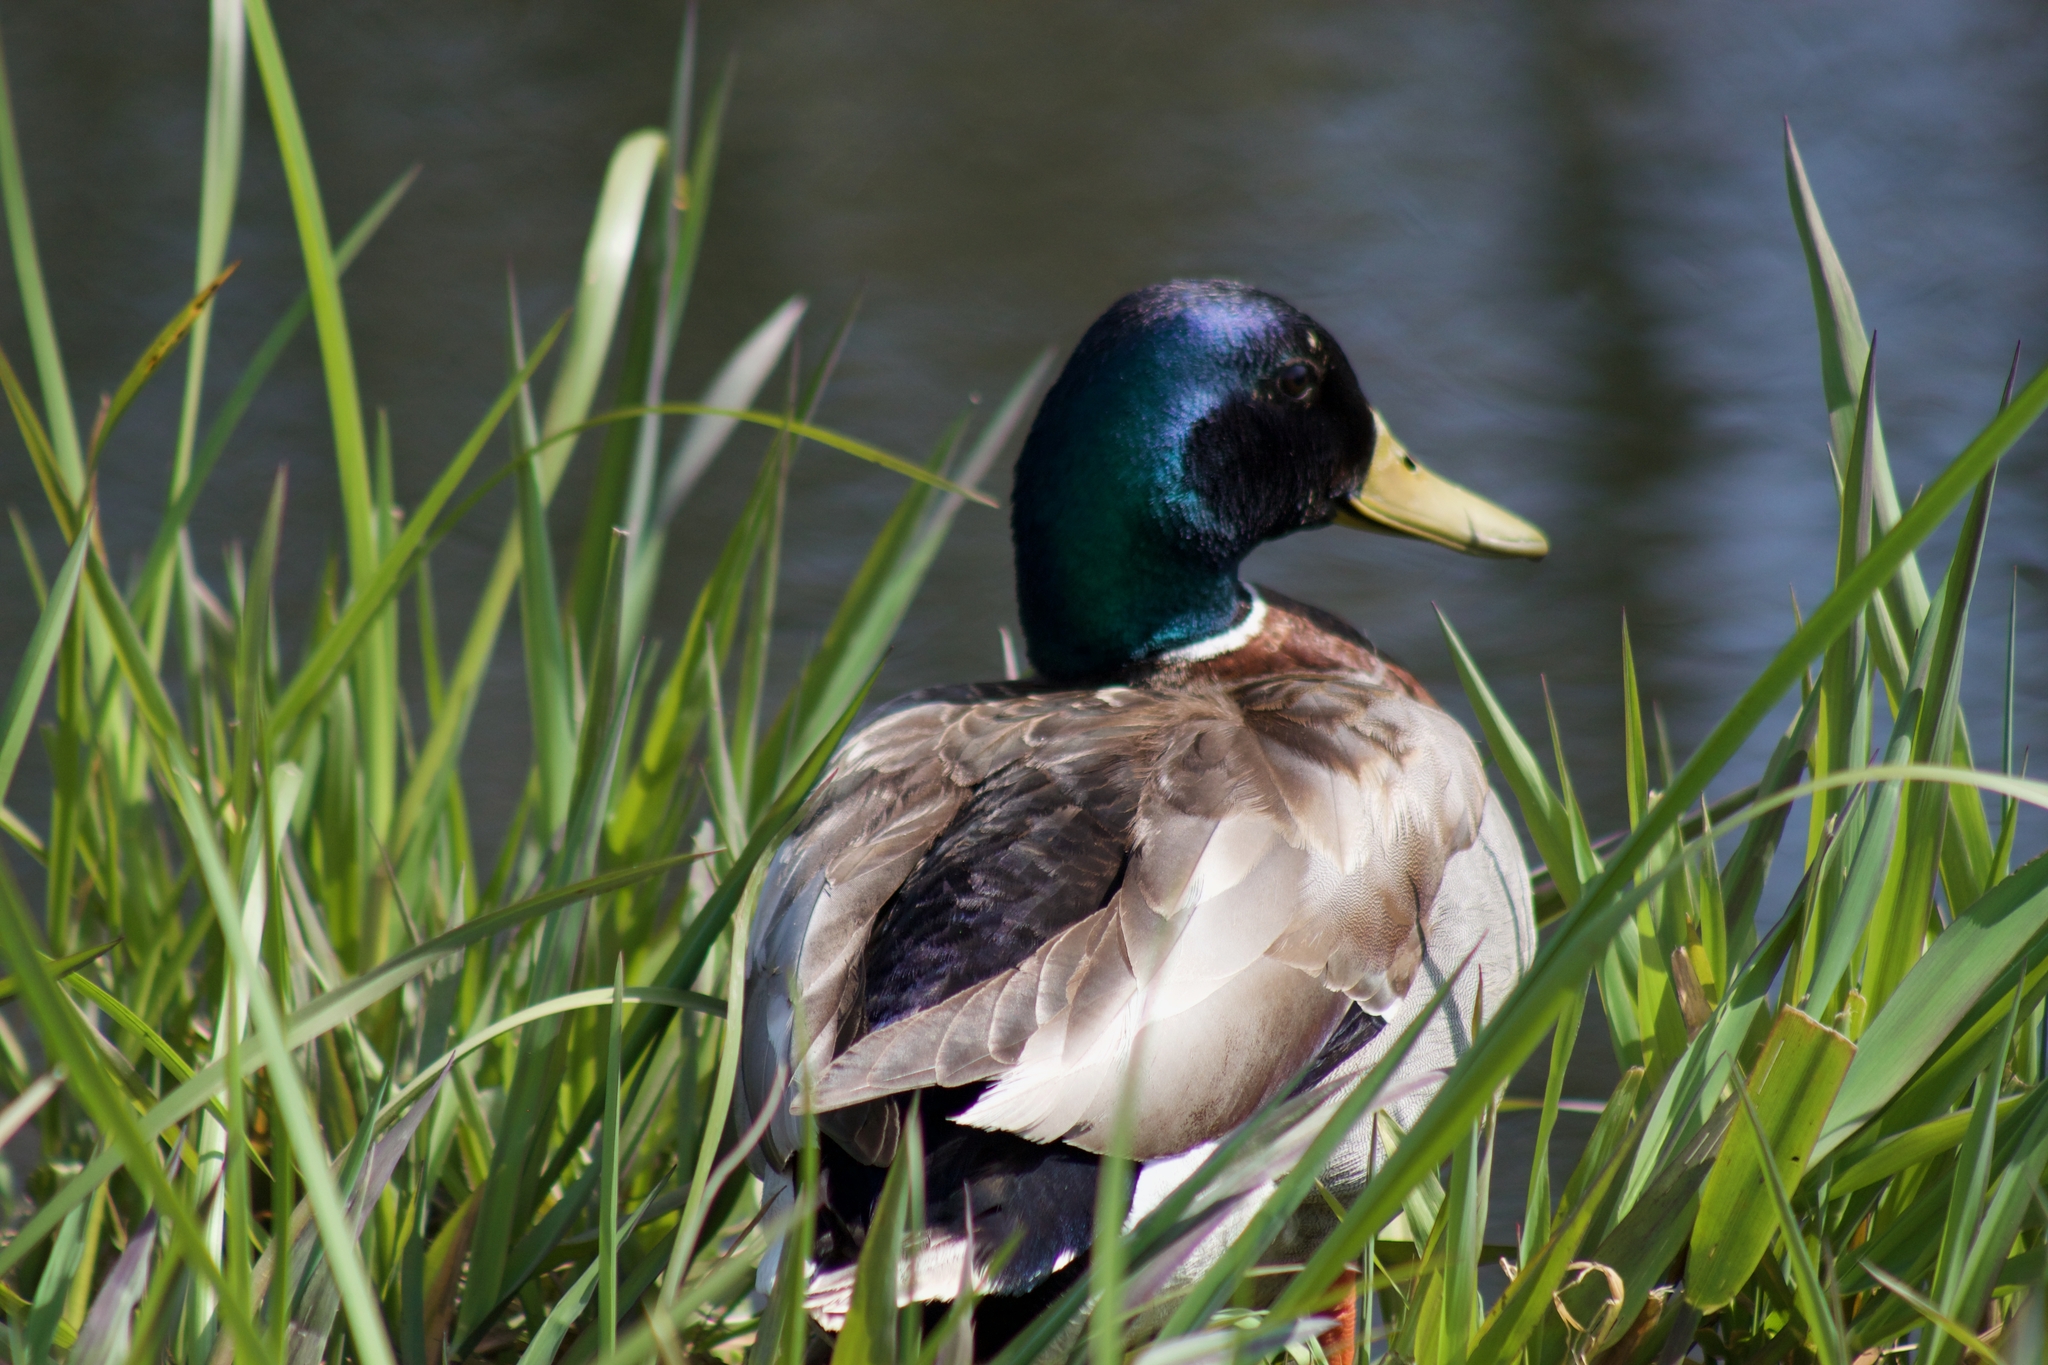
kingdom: Animalia
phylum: Chordata
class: Aves
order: Anseriformes
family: Anatidae
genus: Anas
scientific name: Anas platyrhynchos
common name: Mallard
